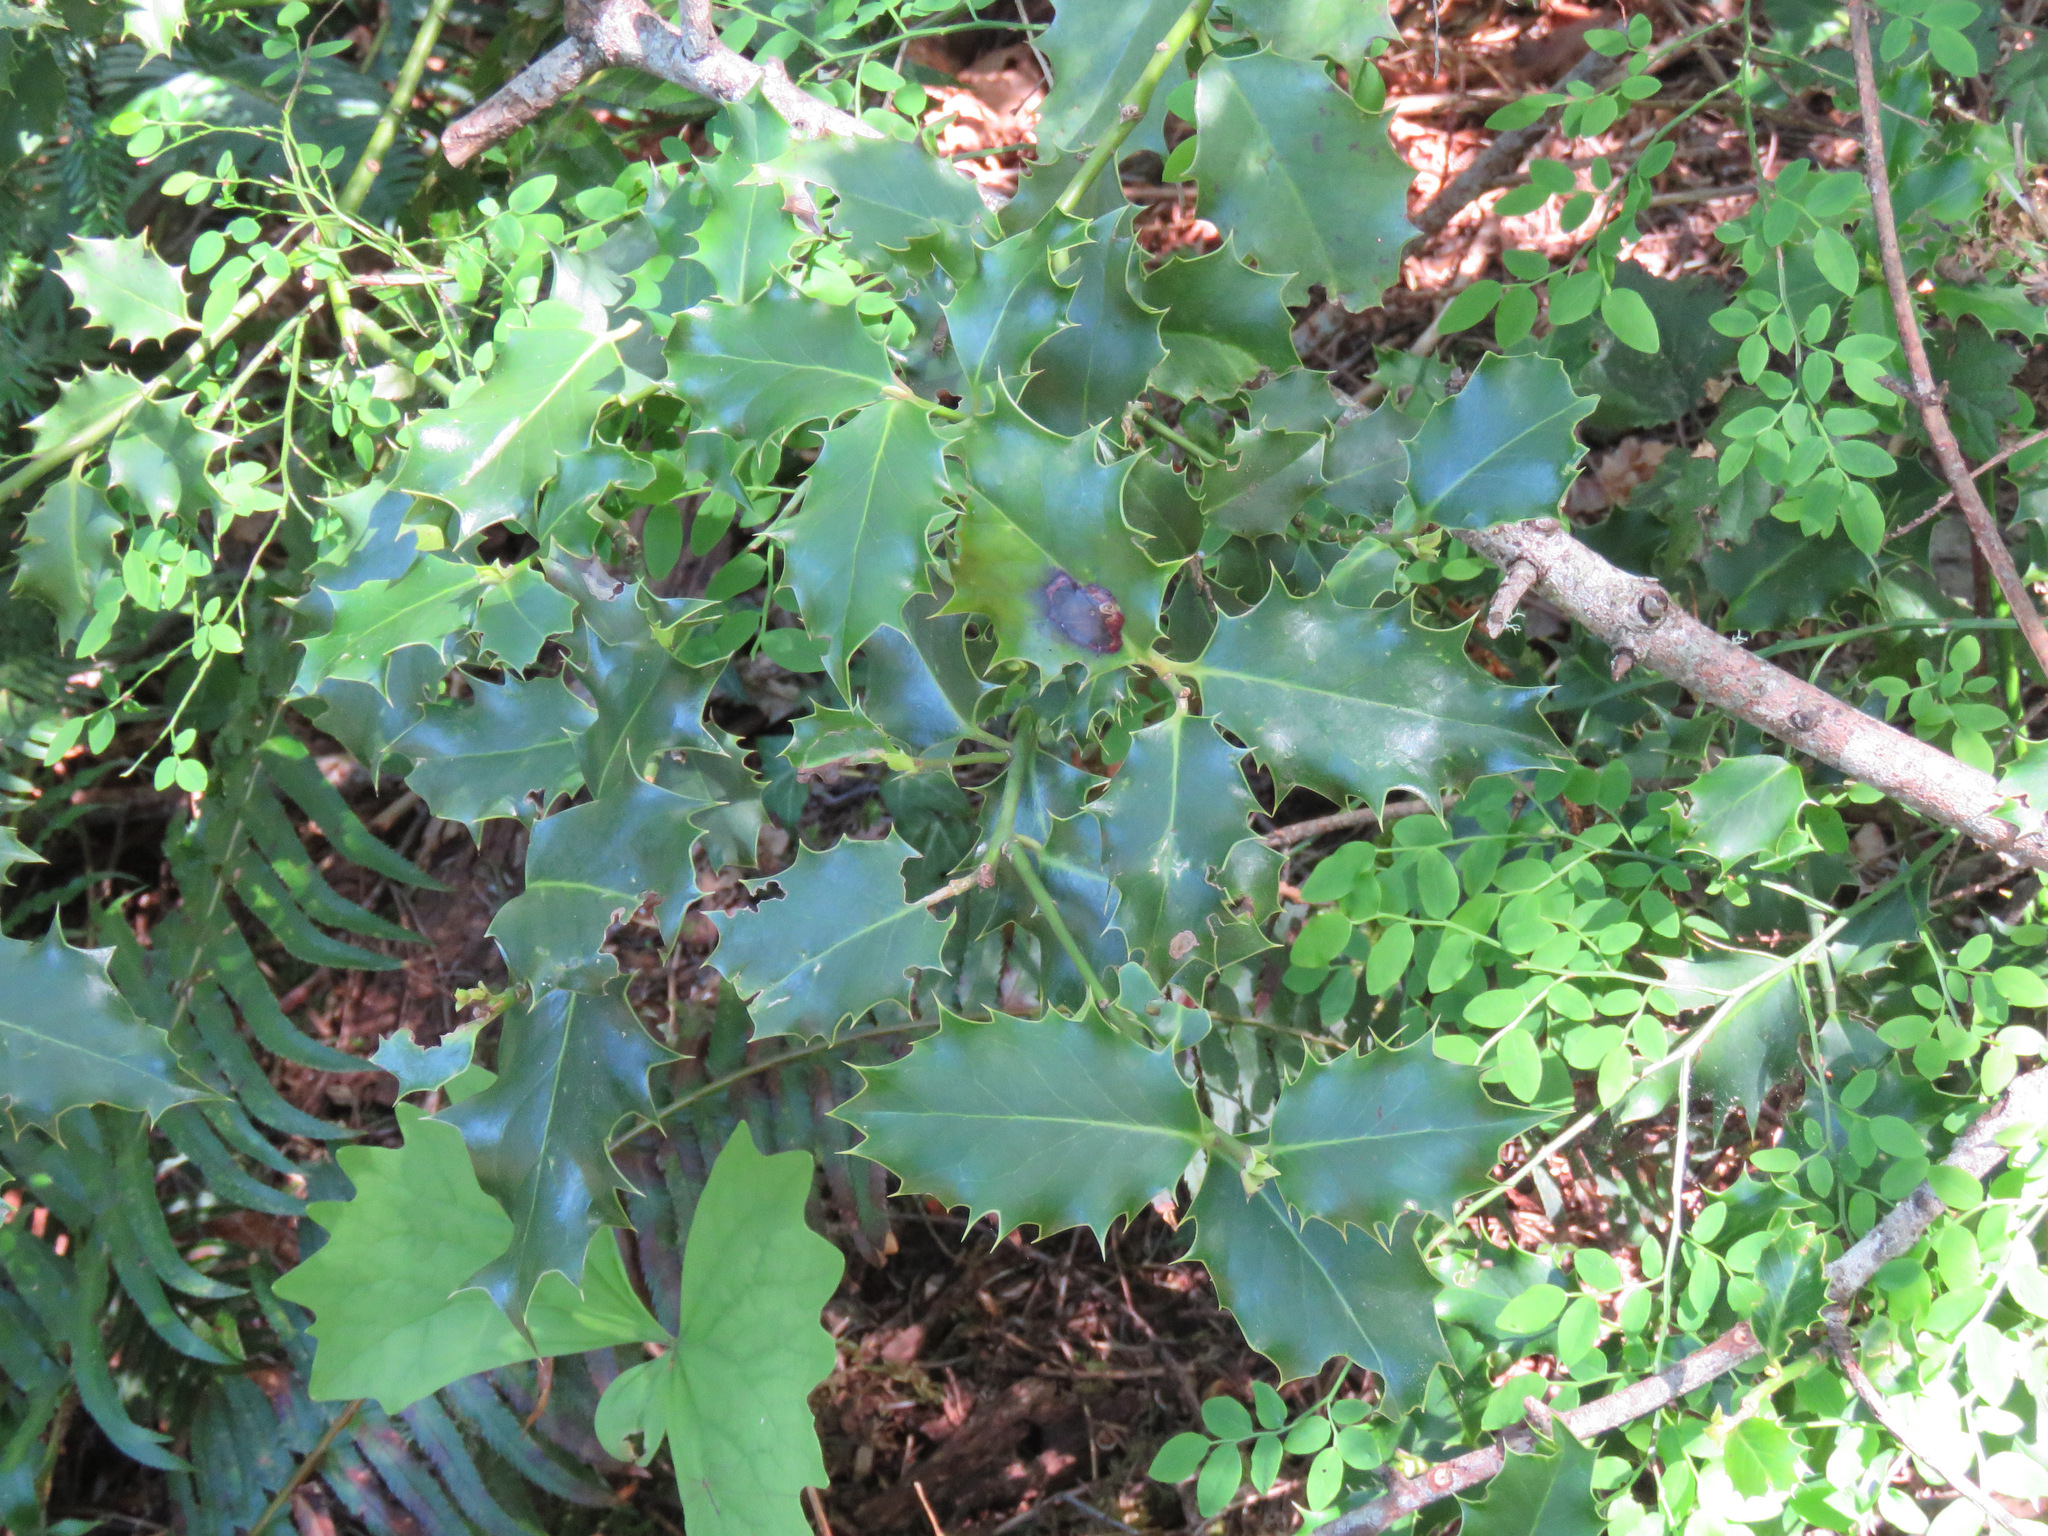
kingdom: Plantae
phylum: Tracheophyta
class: Magnoliopsida
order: Aquifoliales
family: Aquifoliaceae
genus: Ilex
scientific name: Ilex aquifolium
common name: English holly
